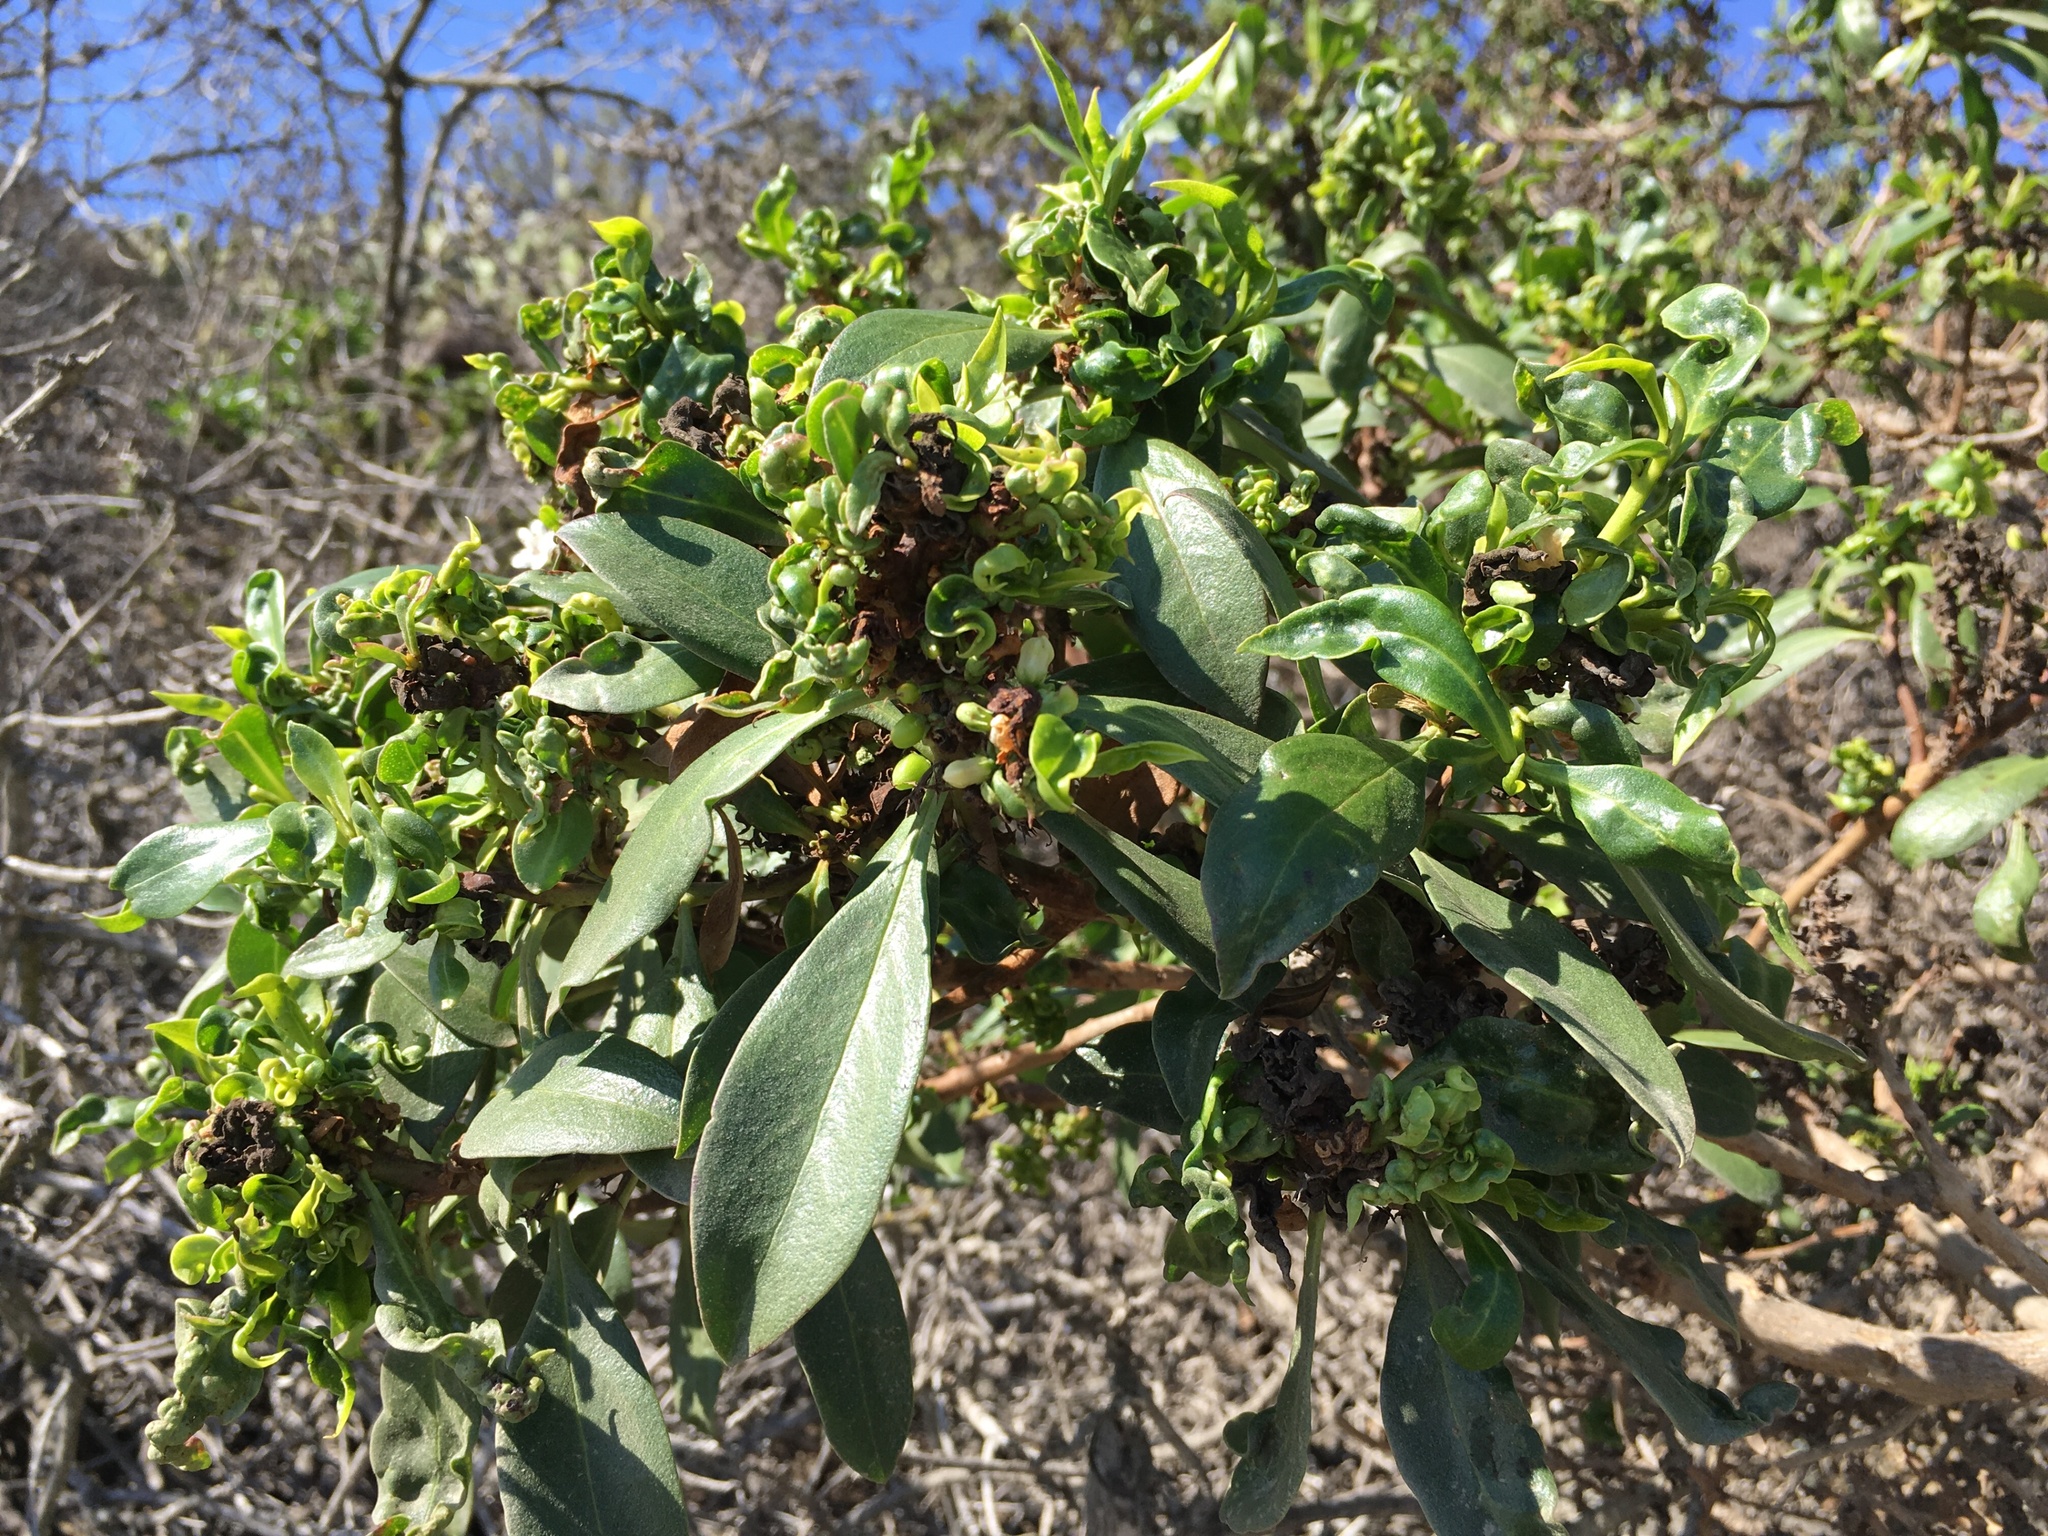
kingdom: Animalia
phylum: Arthropoda
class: Insecta
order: Thysanoptera
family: Phlaeothripidae
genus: Klambothrips
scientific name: Klambothrips myopori
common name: Myoporum thrips
